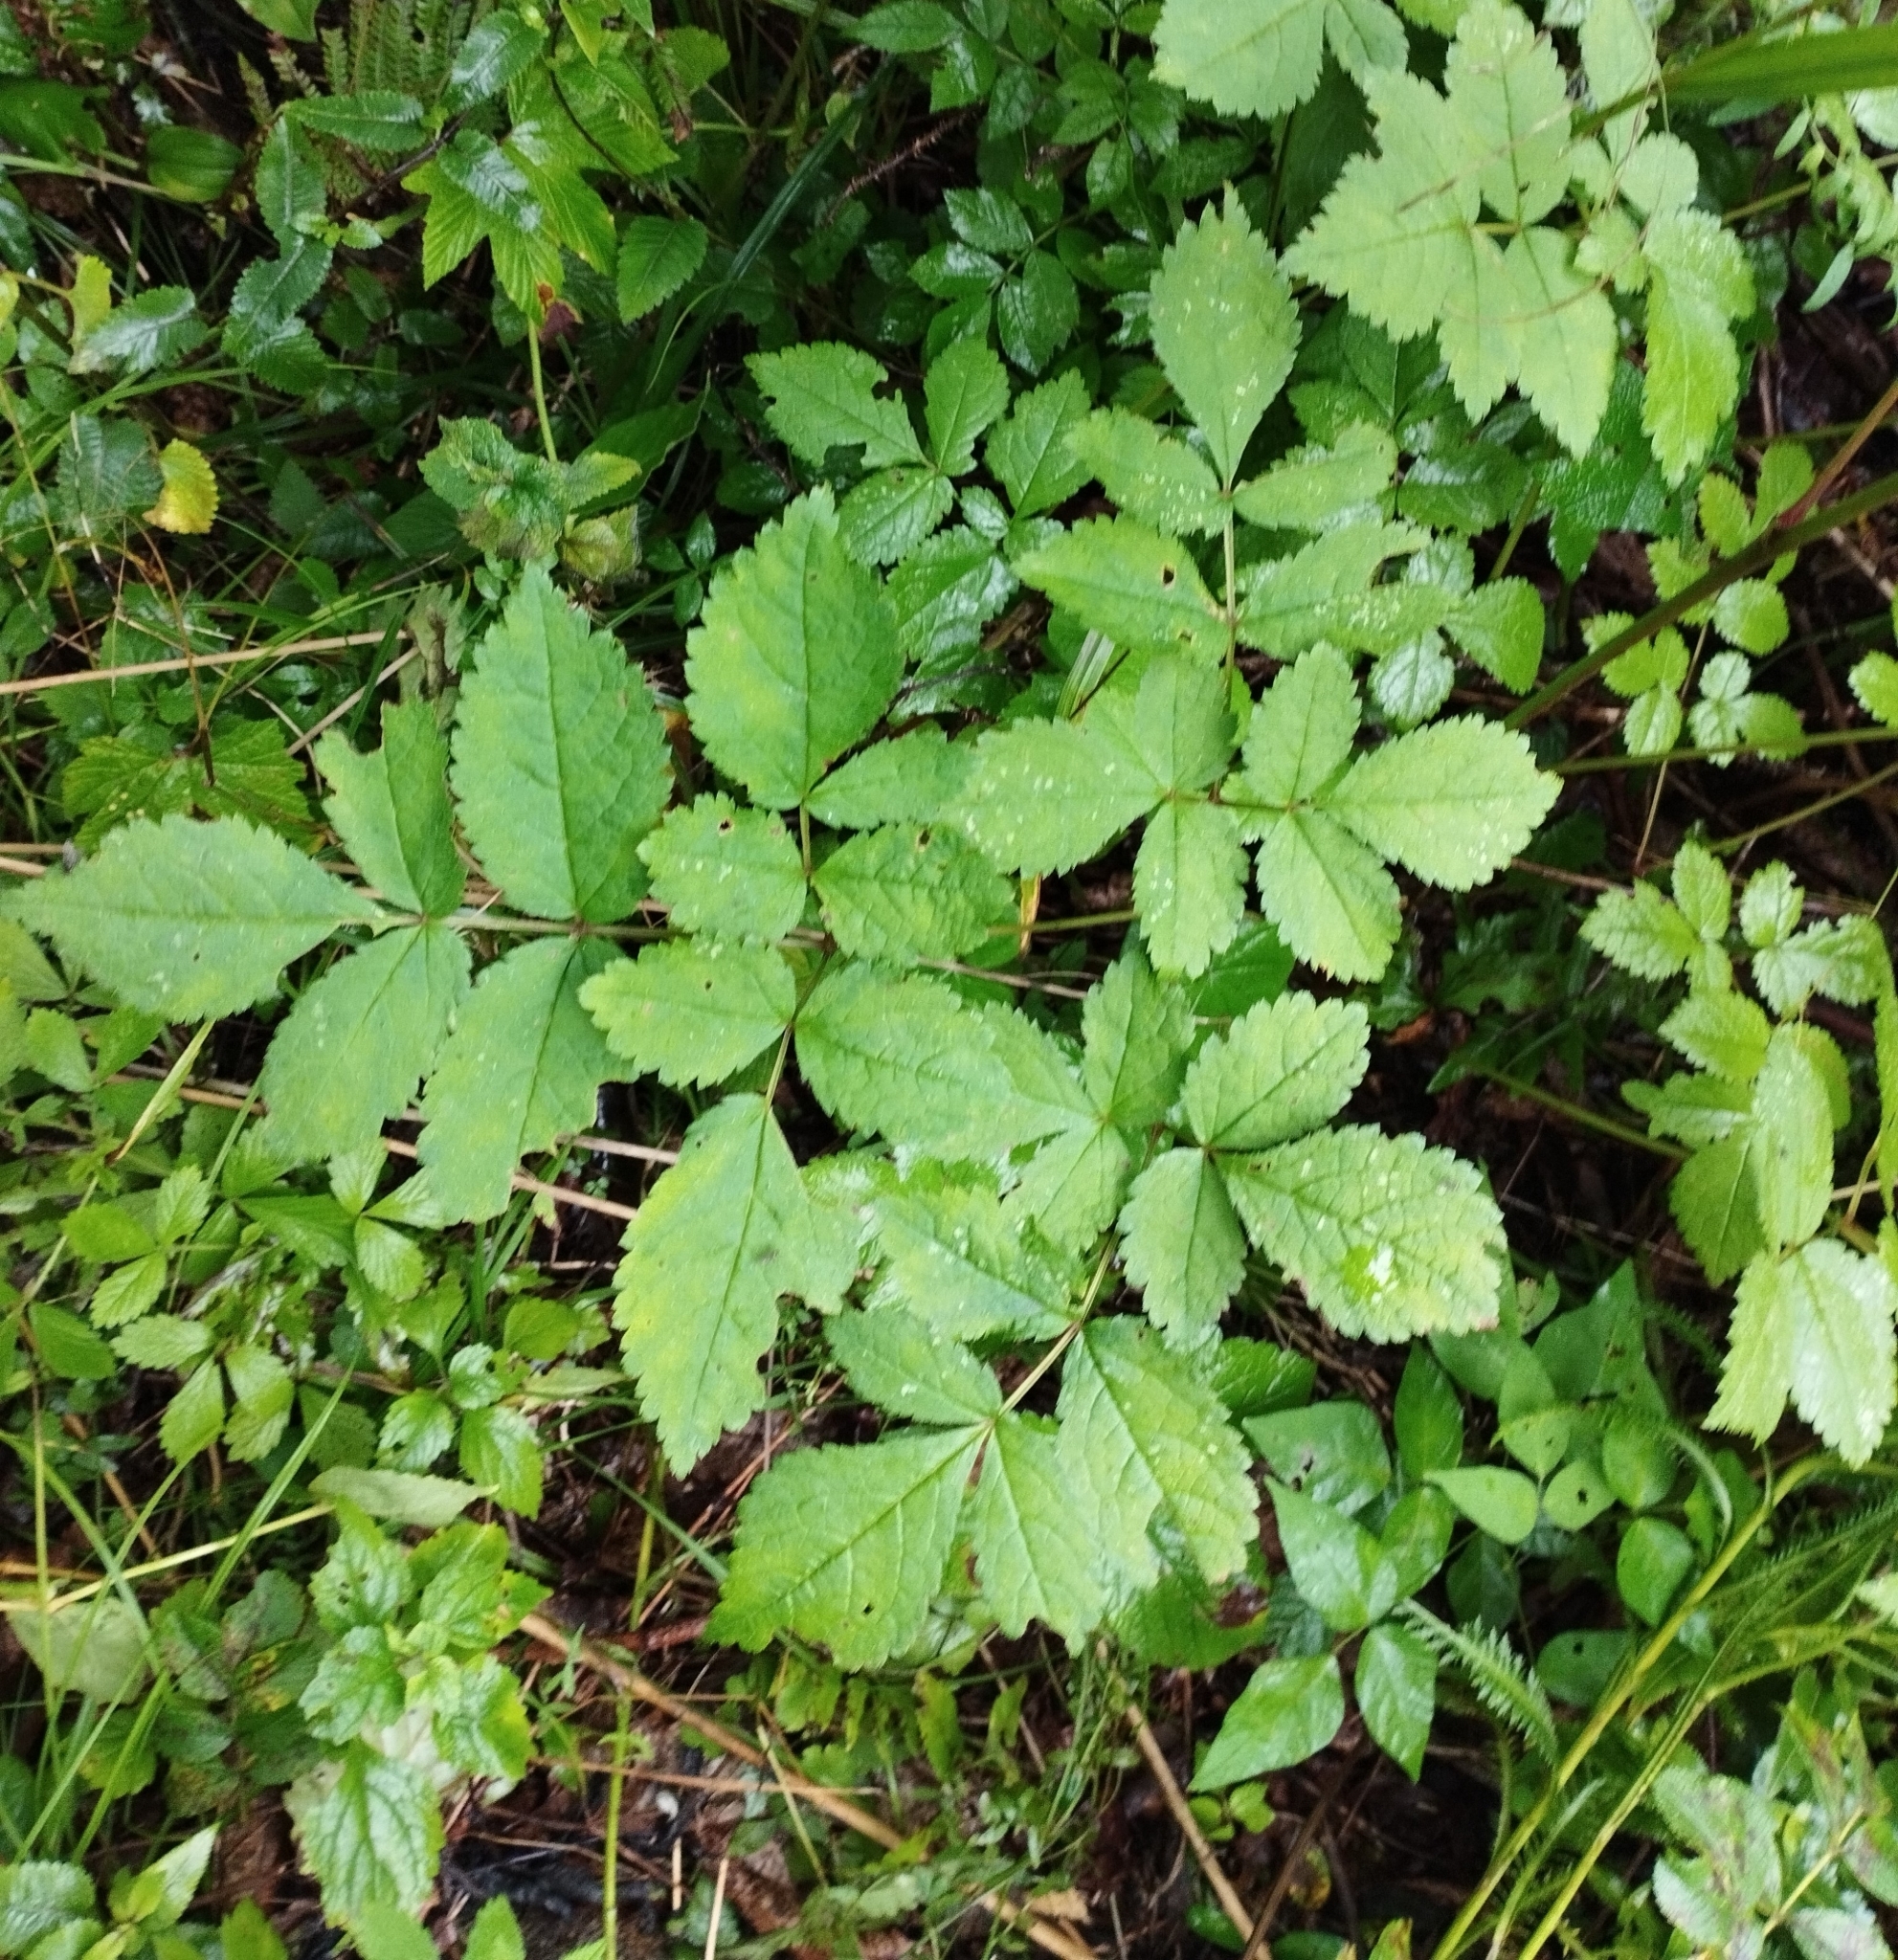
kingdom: Plantae
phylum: Tracheophyta
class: Magnoliopsida
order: Saxifragales
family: Saxifragaceae
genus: Astilbe
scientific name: Astilbe rubra
